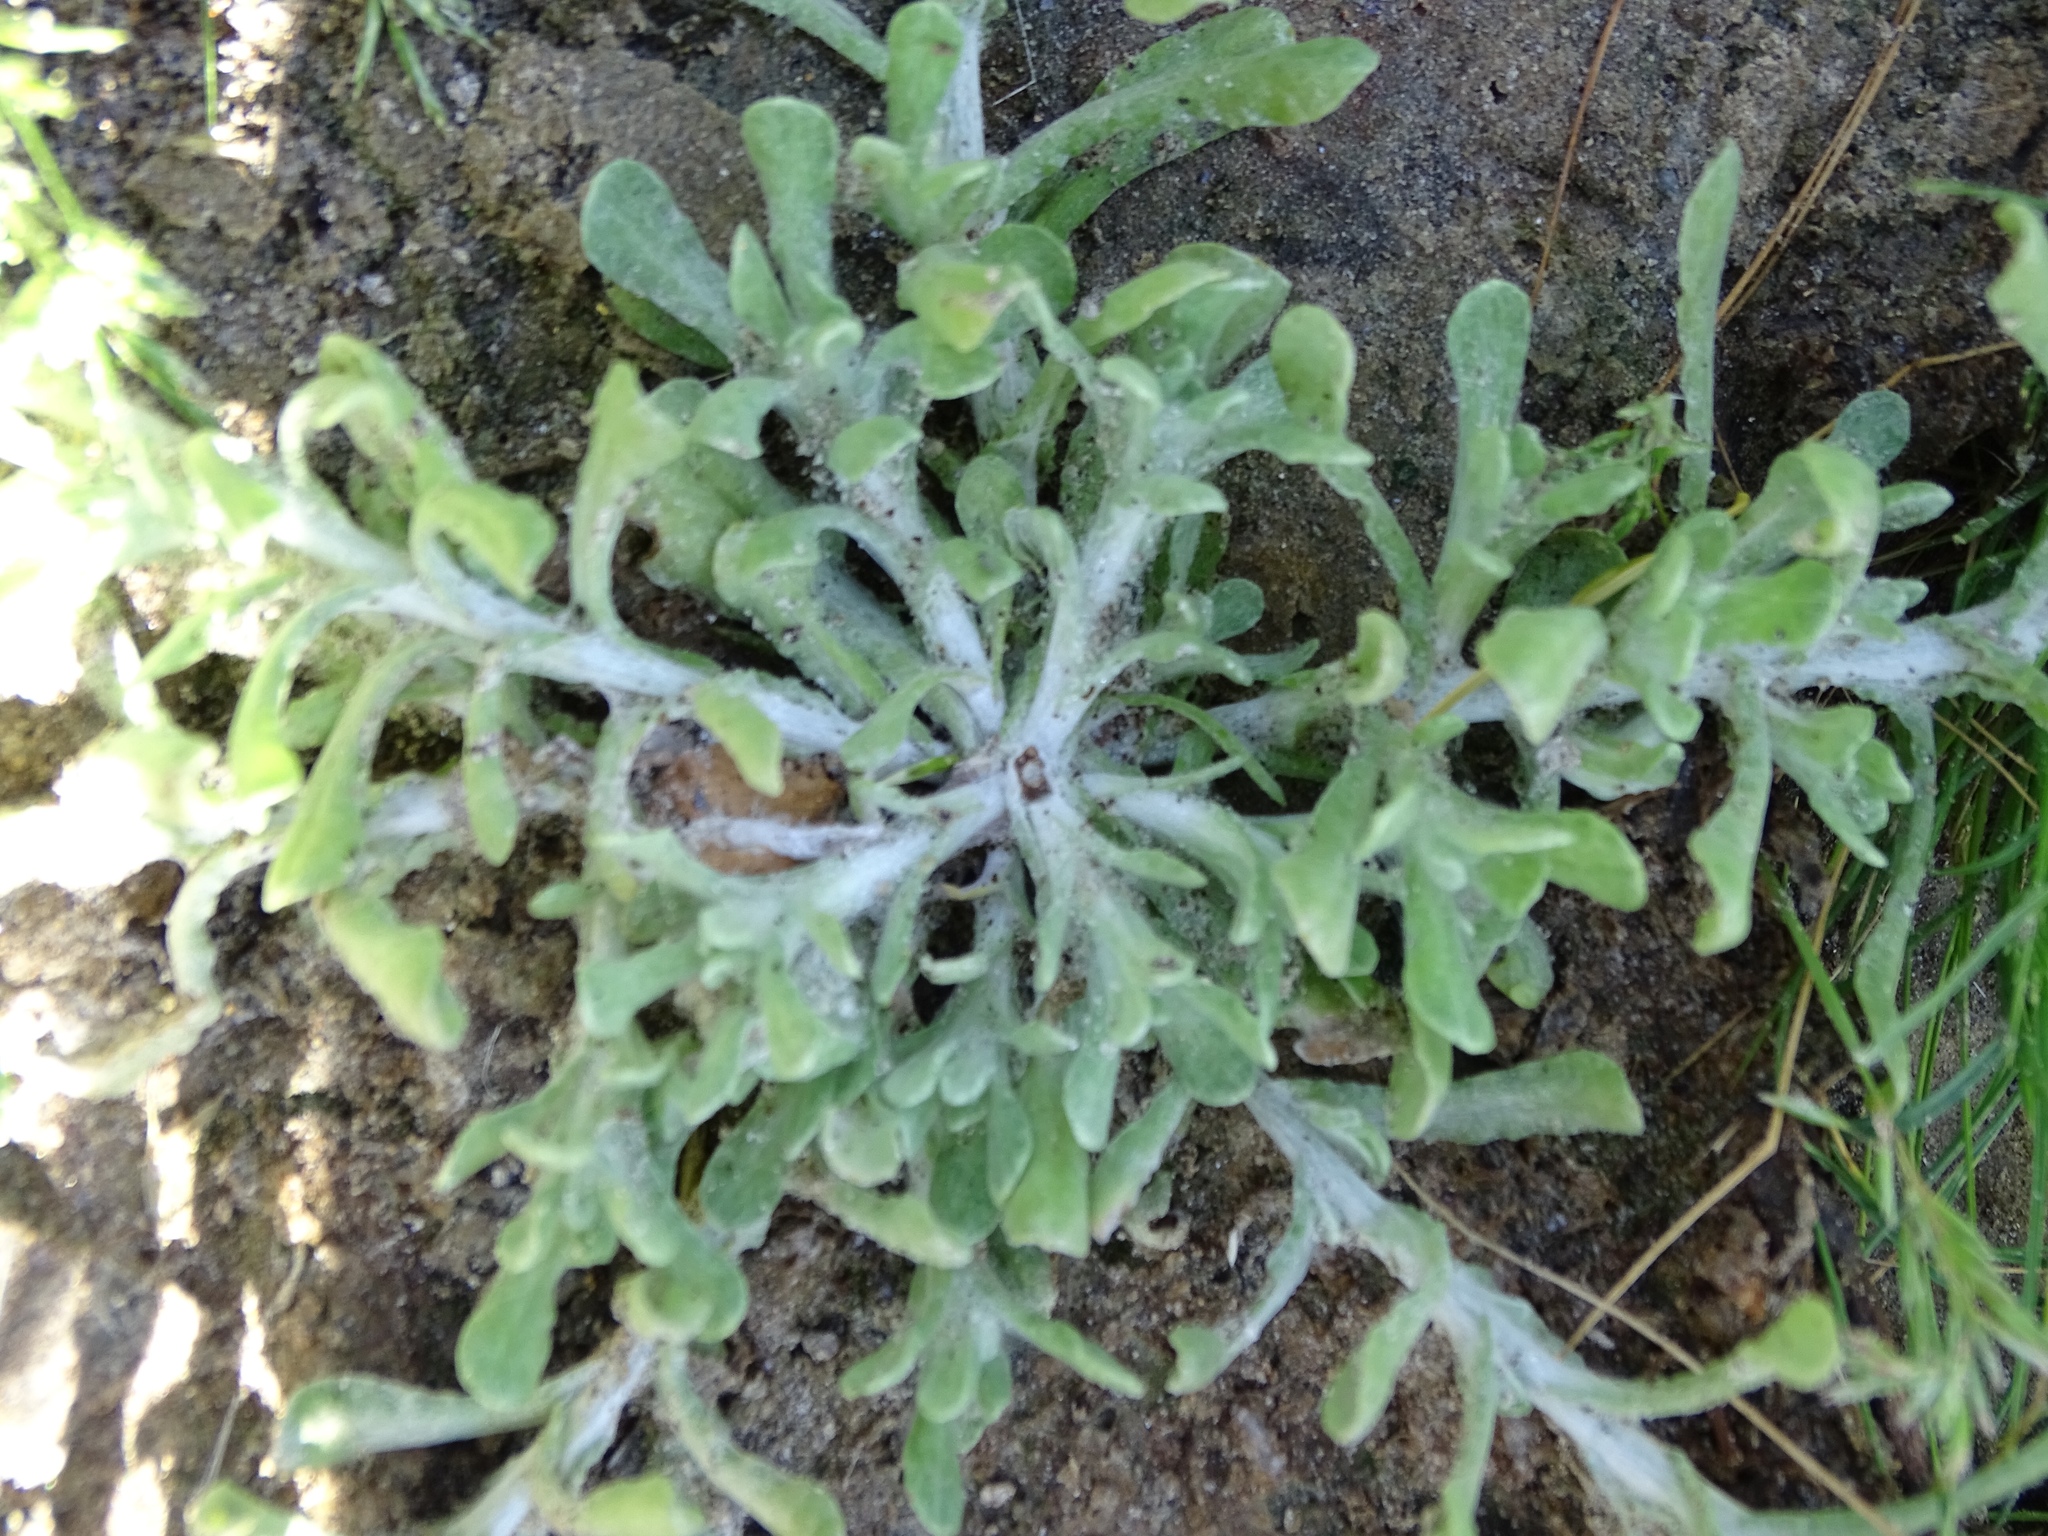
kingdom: Plantae
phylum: Tracheophyta
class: Magnoliopsida
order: Asterales
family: Asteraceae
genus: Helichrysum
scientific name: Helichrysum luteoalbum
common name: Daisy
